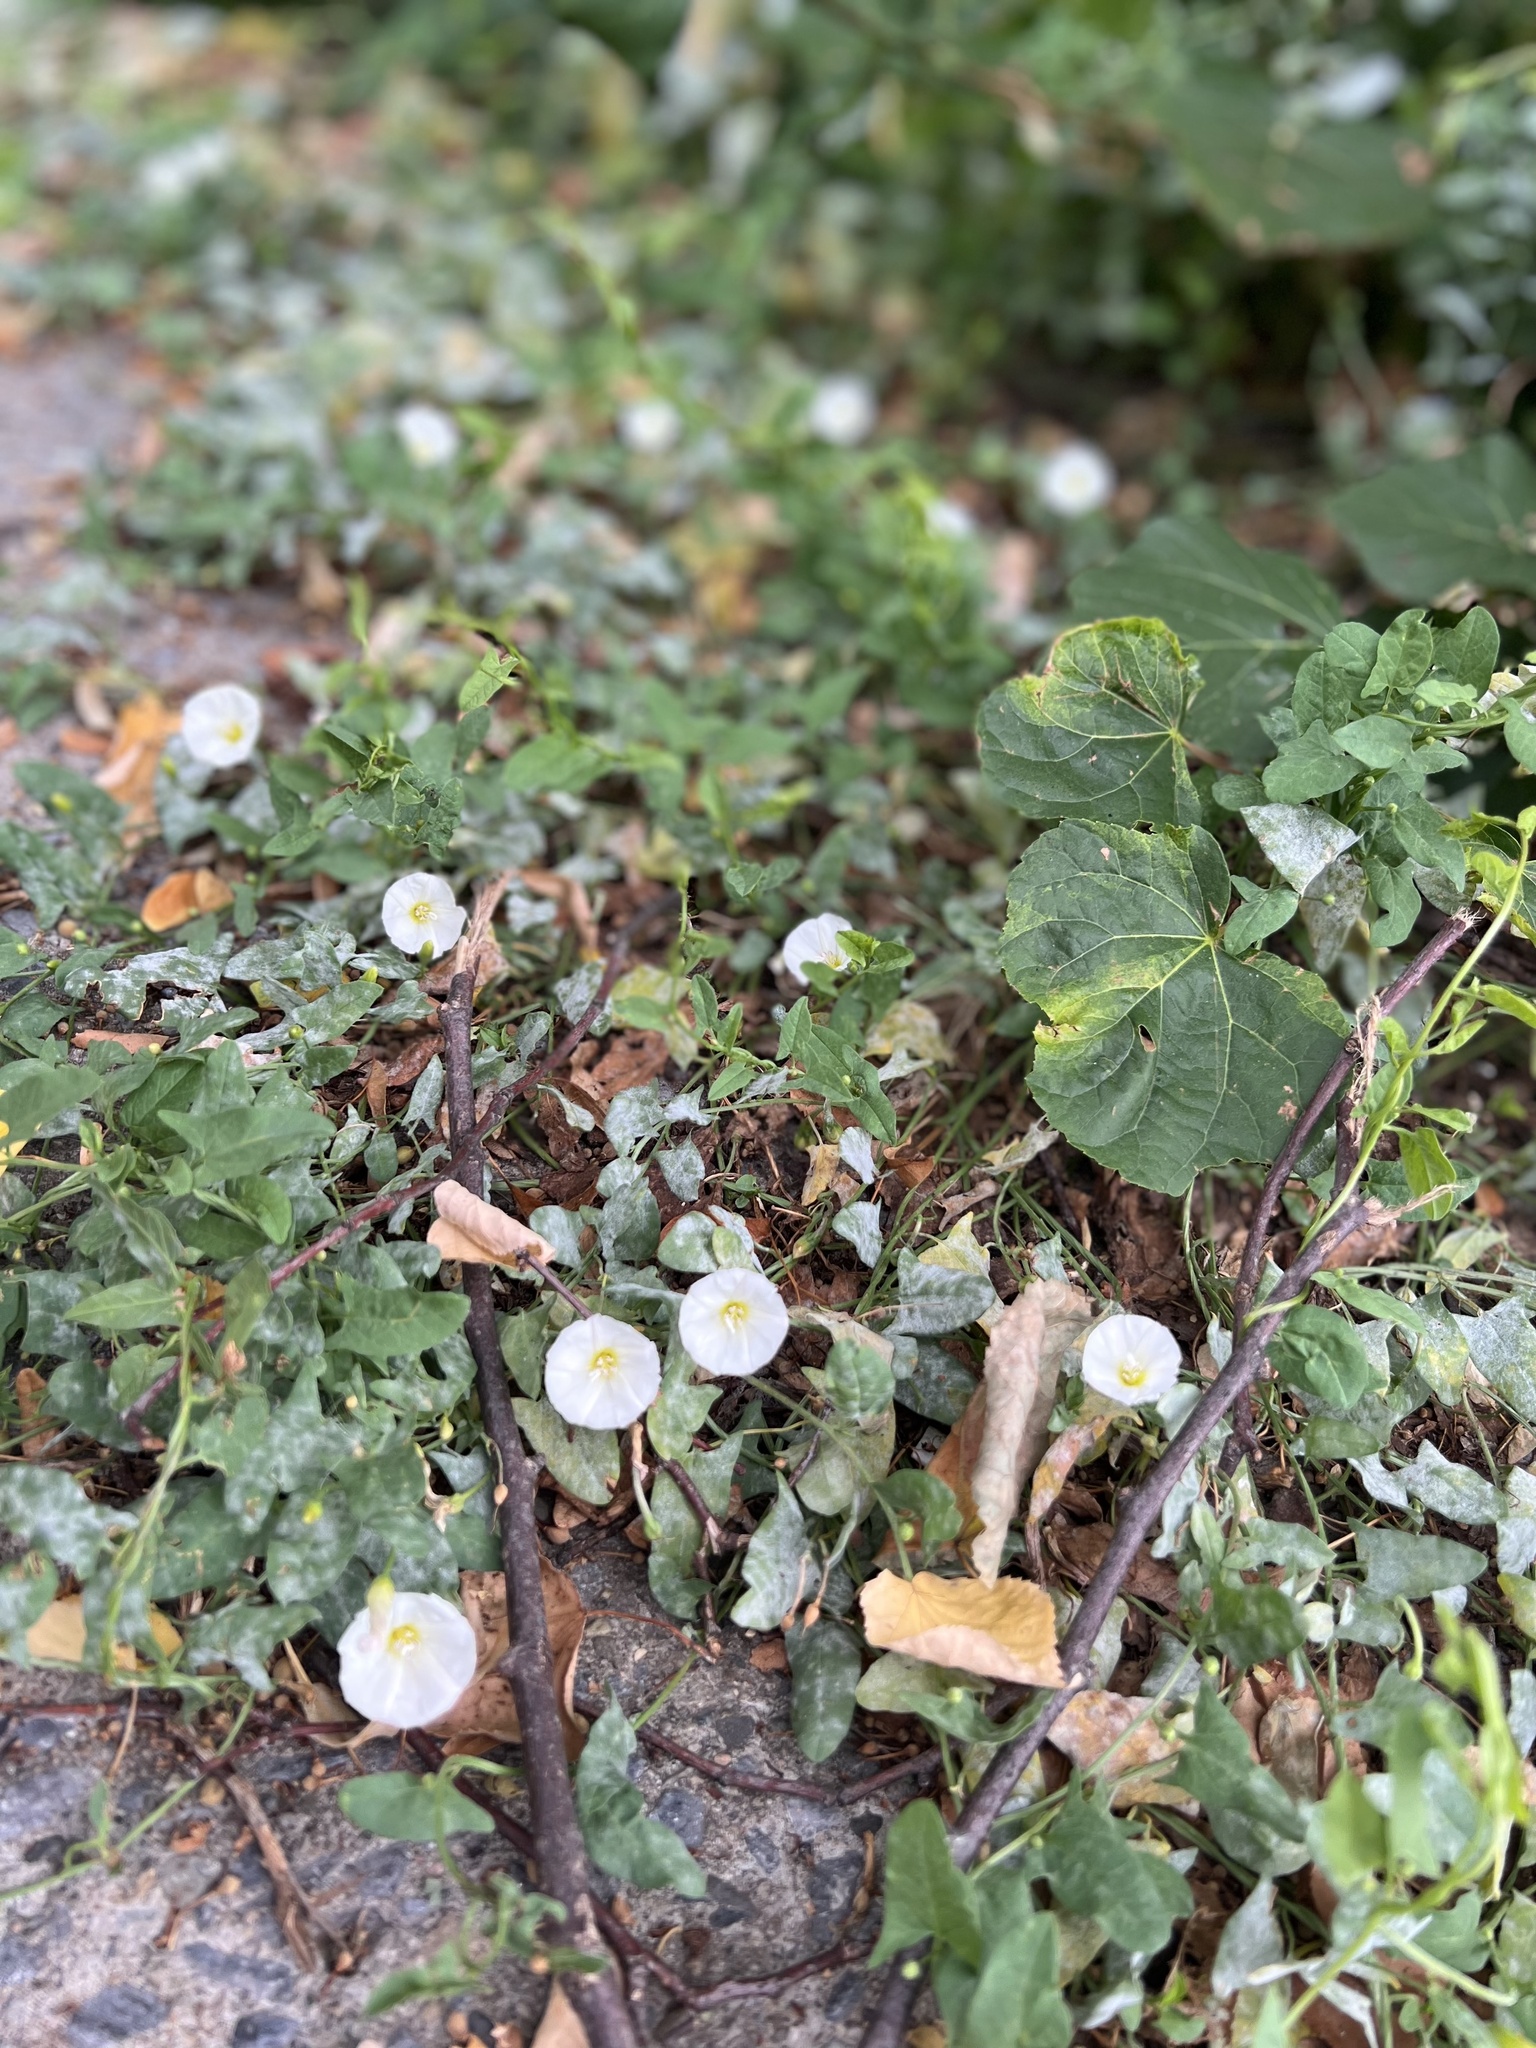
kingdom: Plantae
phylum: Tracheophyta
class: Magnoliopsida
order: Solanales
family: Convolvulaceae
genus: Convolvulus
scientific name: Convolvulus arvensis
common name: Field bindweed
